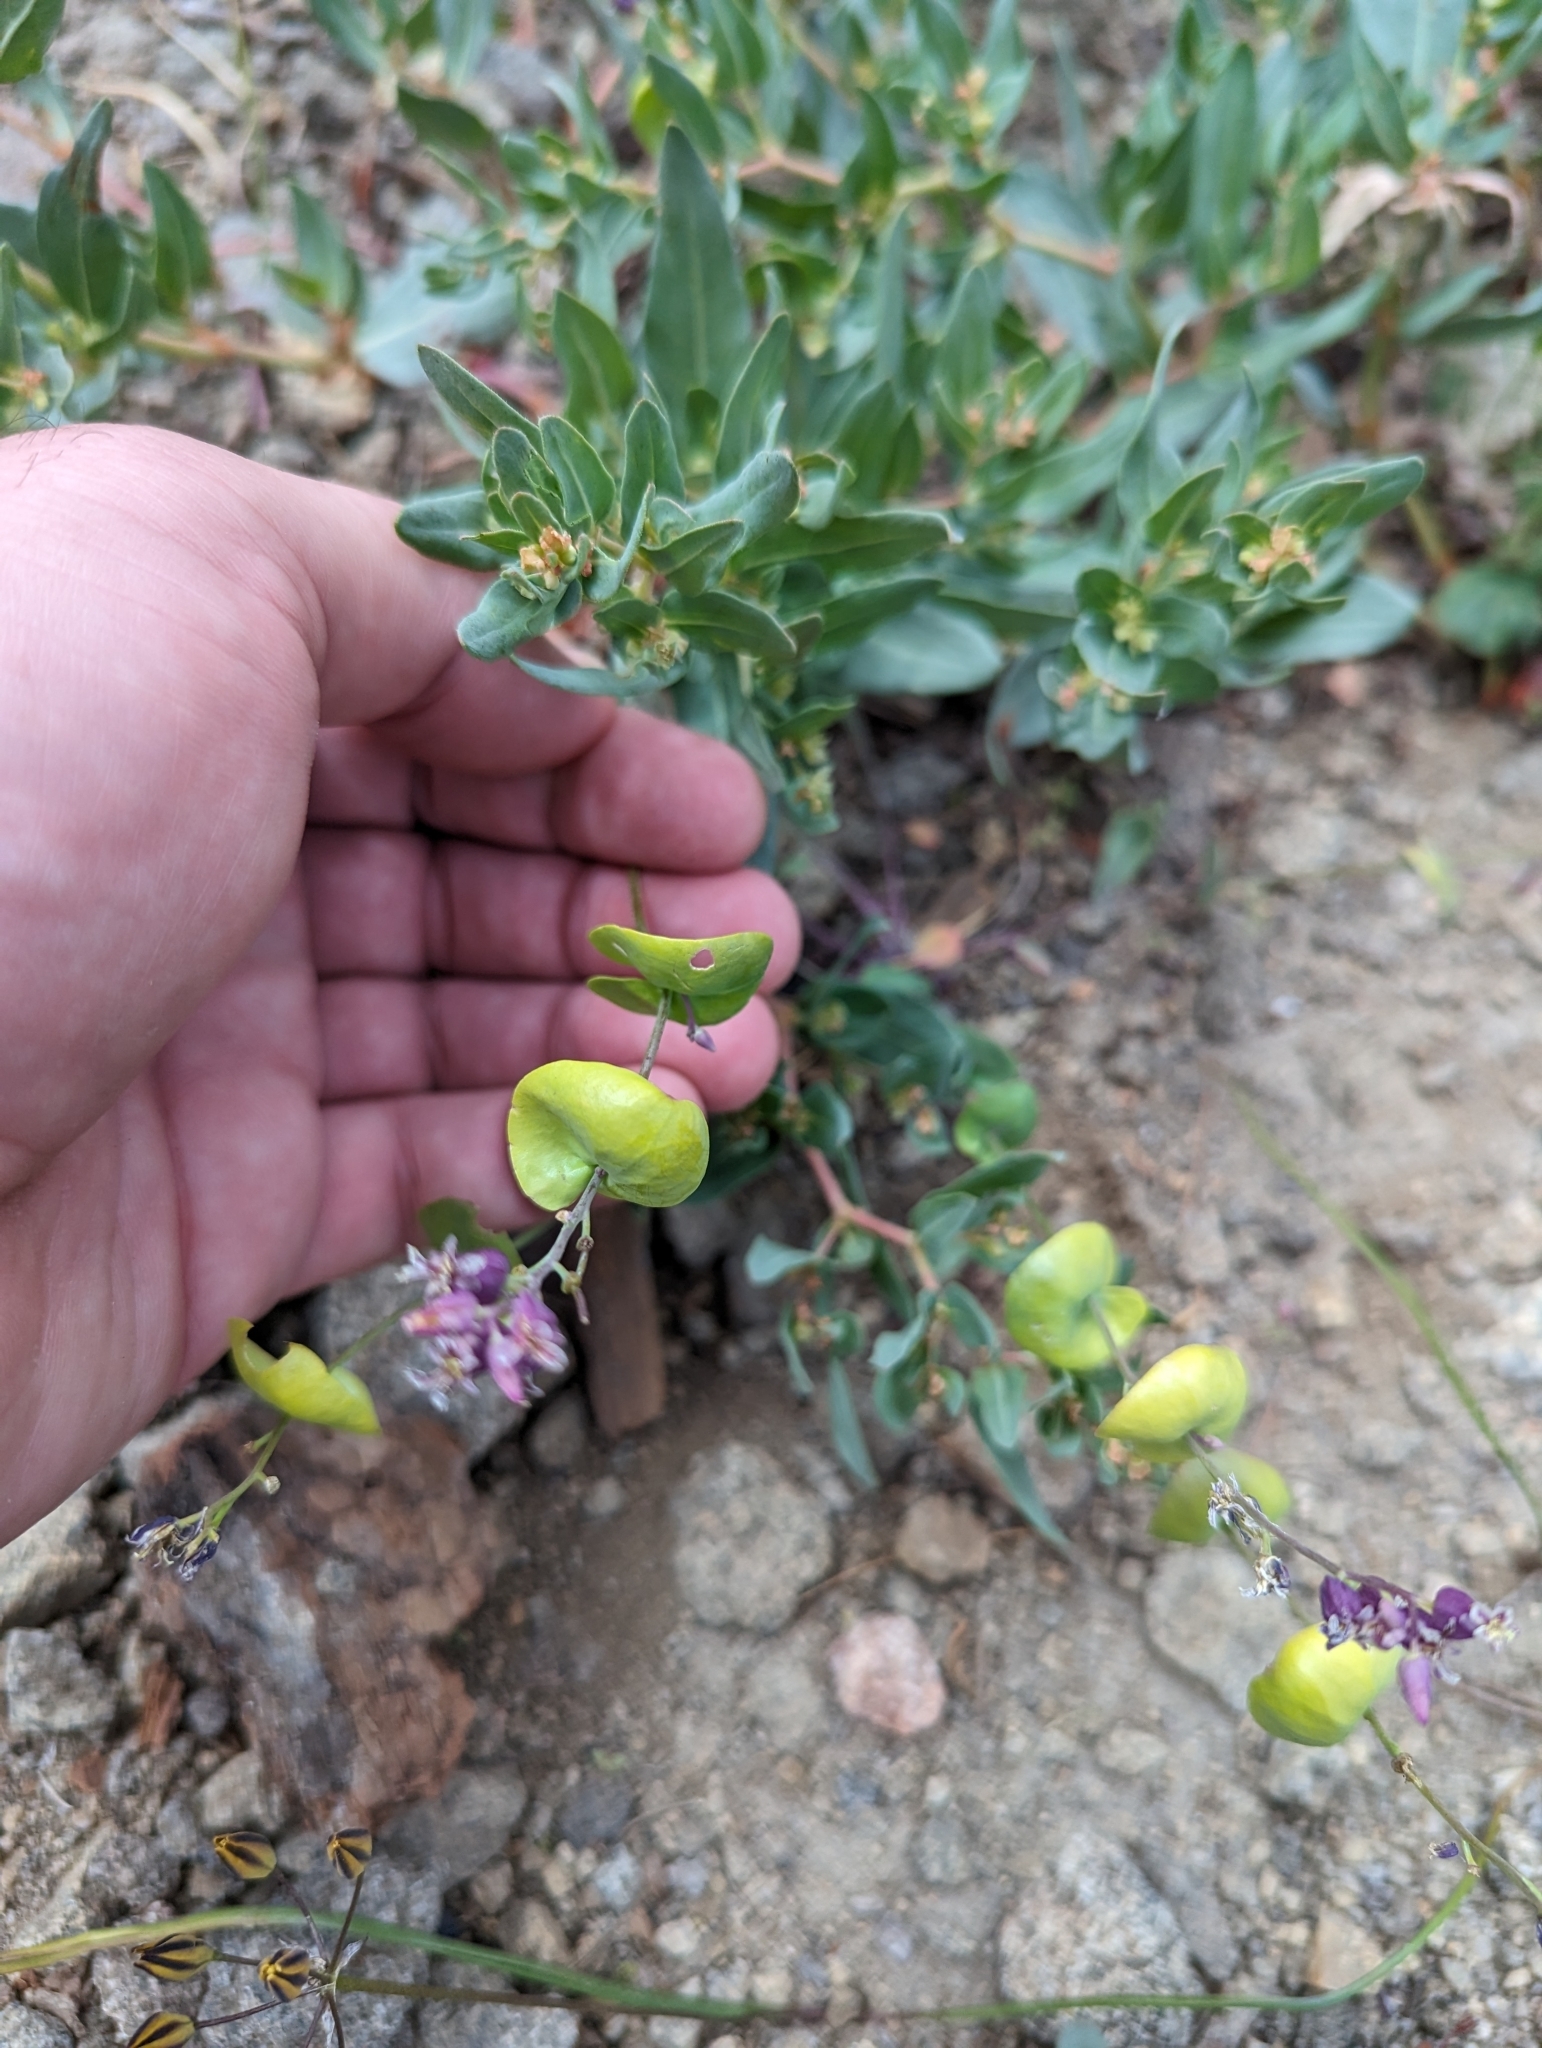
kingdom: Plantae
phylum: Tracheophyta
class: Magnoliopsida
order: Brassicales
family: Brassicaceae
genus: Streptanthus
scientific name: Streptanthus tortuosus
